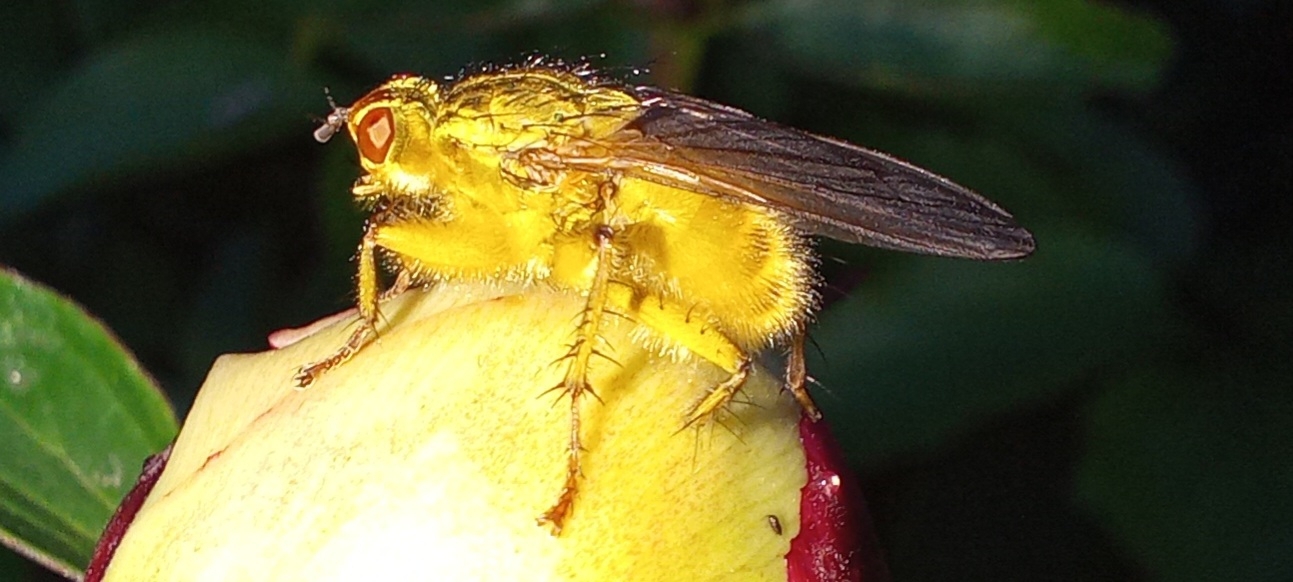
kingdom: Animalia
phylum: Arthropoda
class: Insecta
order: Diptera
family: Scathophagidae
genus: Scathophaga
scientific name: Scathophaga stercoraria
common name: Yellow dung fly
